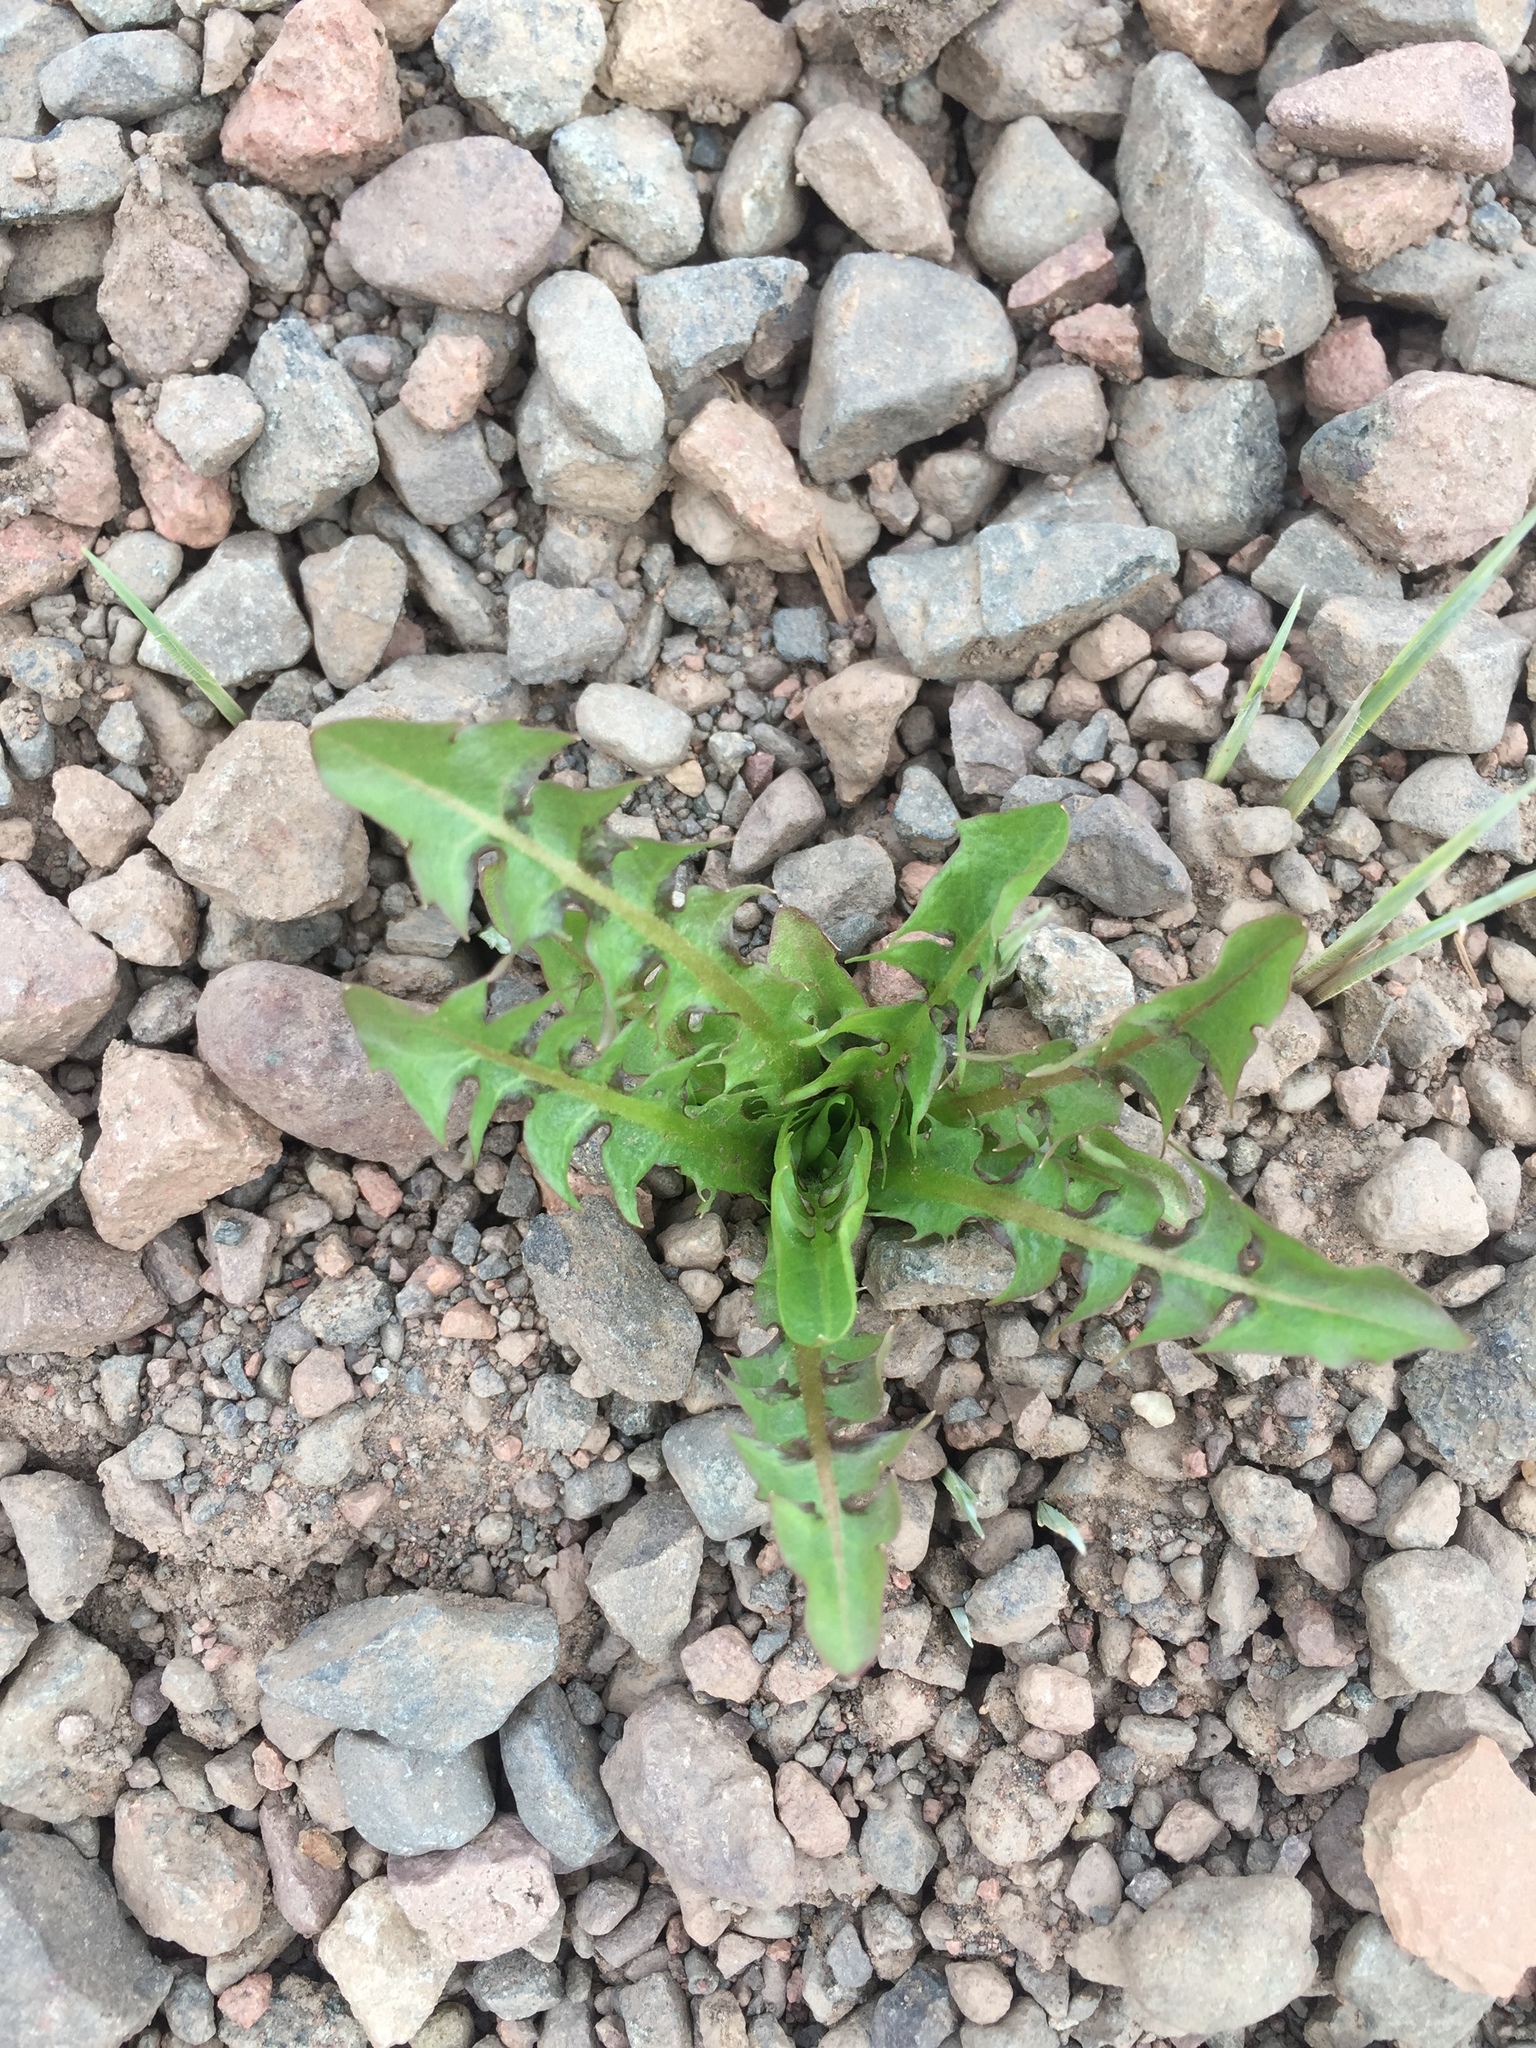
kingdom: Plantae
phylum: Tracheophyta
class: Magnoliopsida
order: Asterales
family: Asteraceae
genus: Taraxacum
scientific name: Taraxacum officinale
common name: Common dandelion
